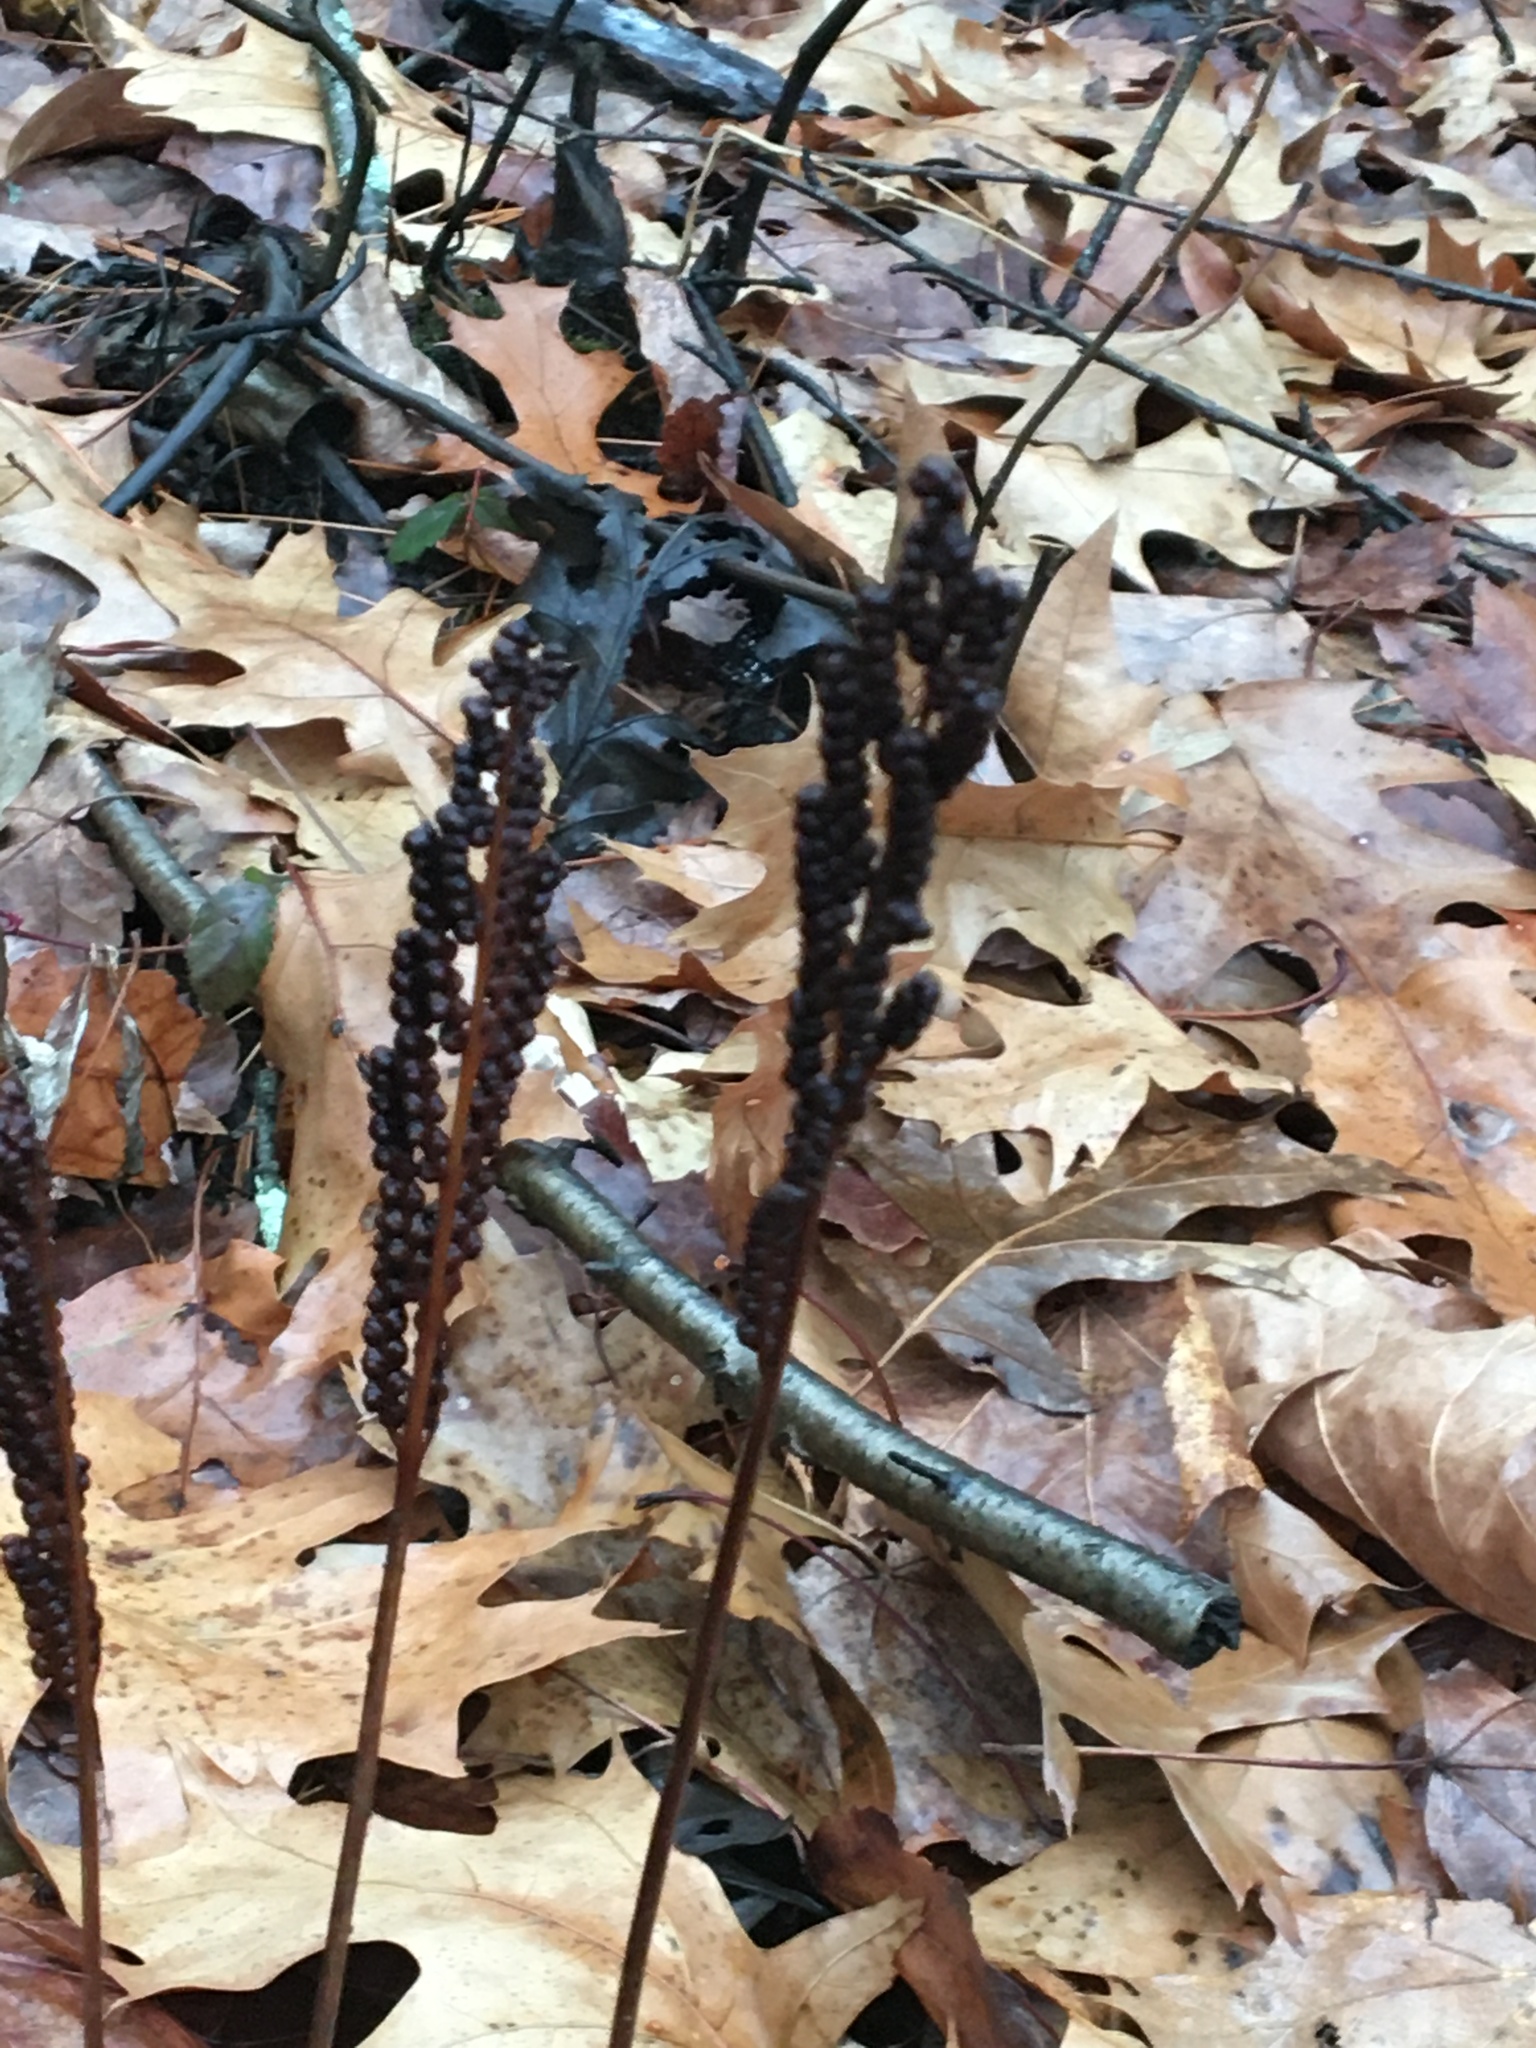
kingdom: Plantae
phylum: Tracheophyta
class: Polypodiopsida
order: Polypodiales
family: Onocleaceae
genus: Onoclea
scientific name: Onoclea sensibilis
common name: Sensitive fern
